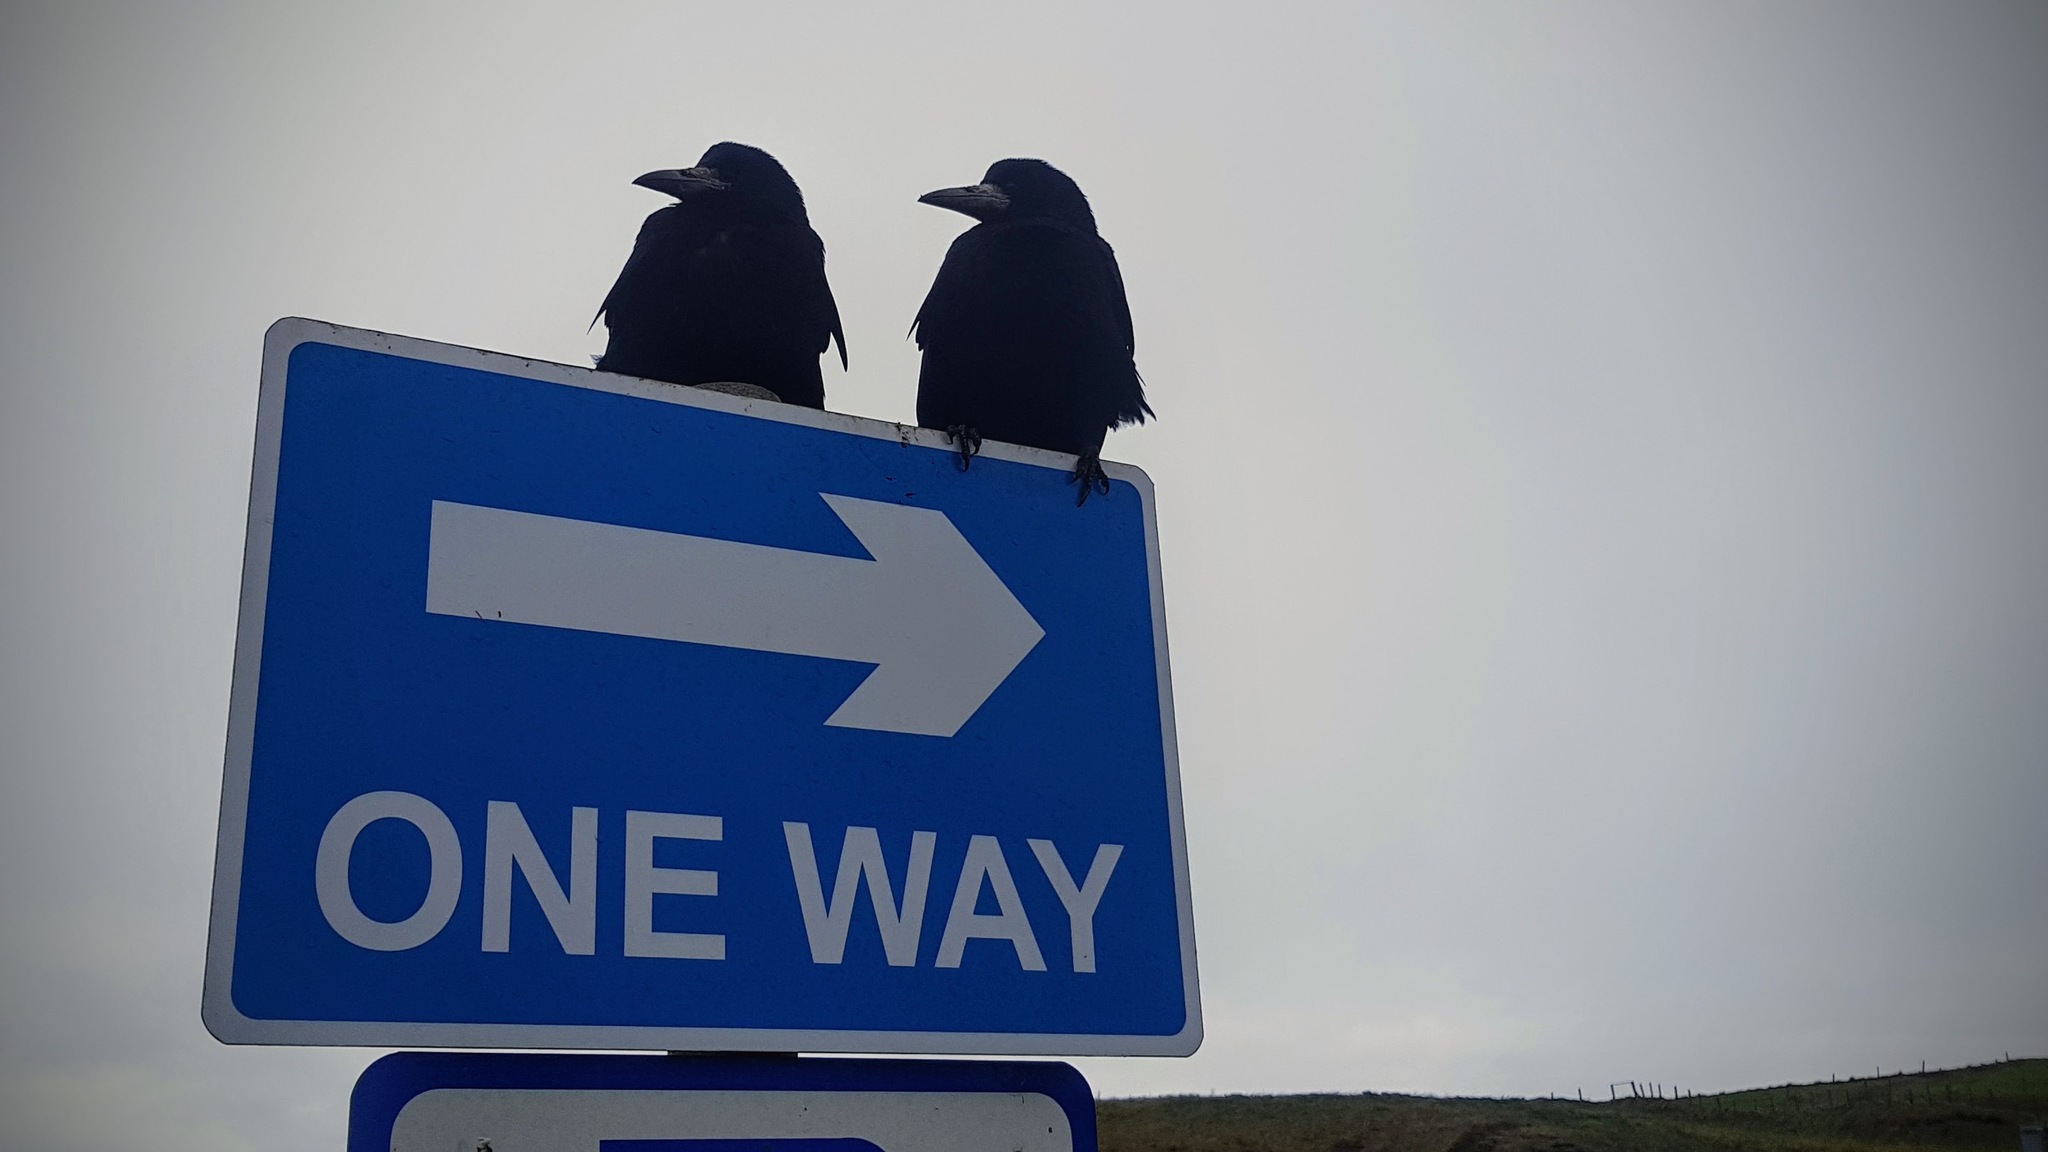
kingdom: Animalia
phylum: Chordata
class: Aves
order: Passeriformes
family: Corvidae
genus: Corvus
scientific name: Corvus frugilegus
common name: Rook
